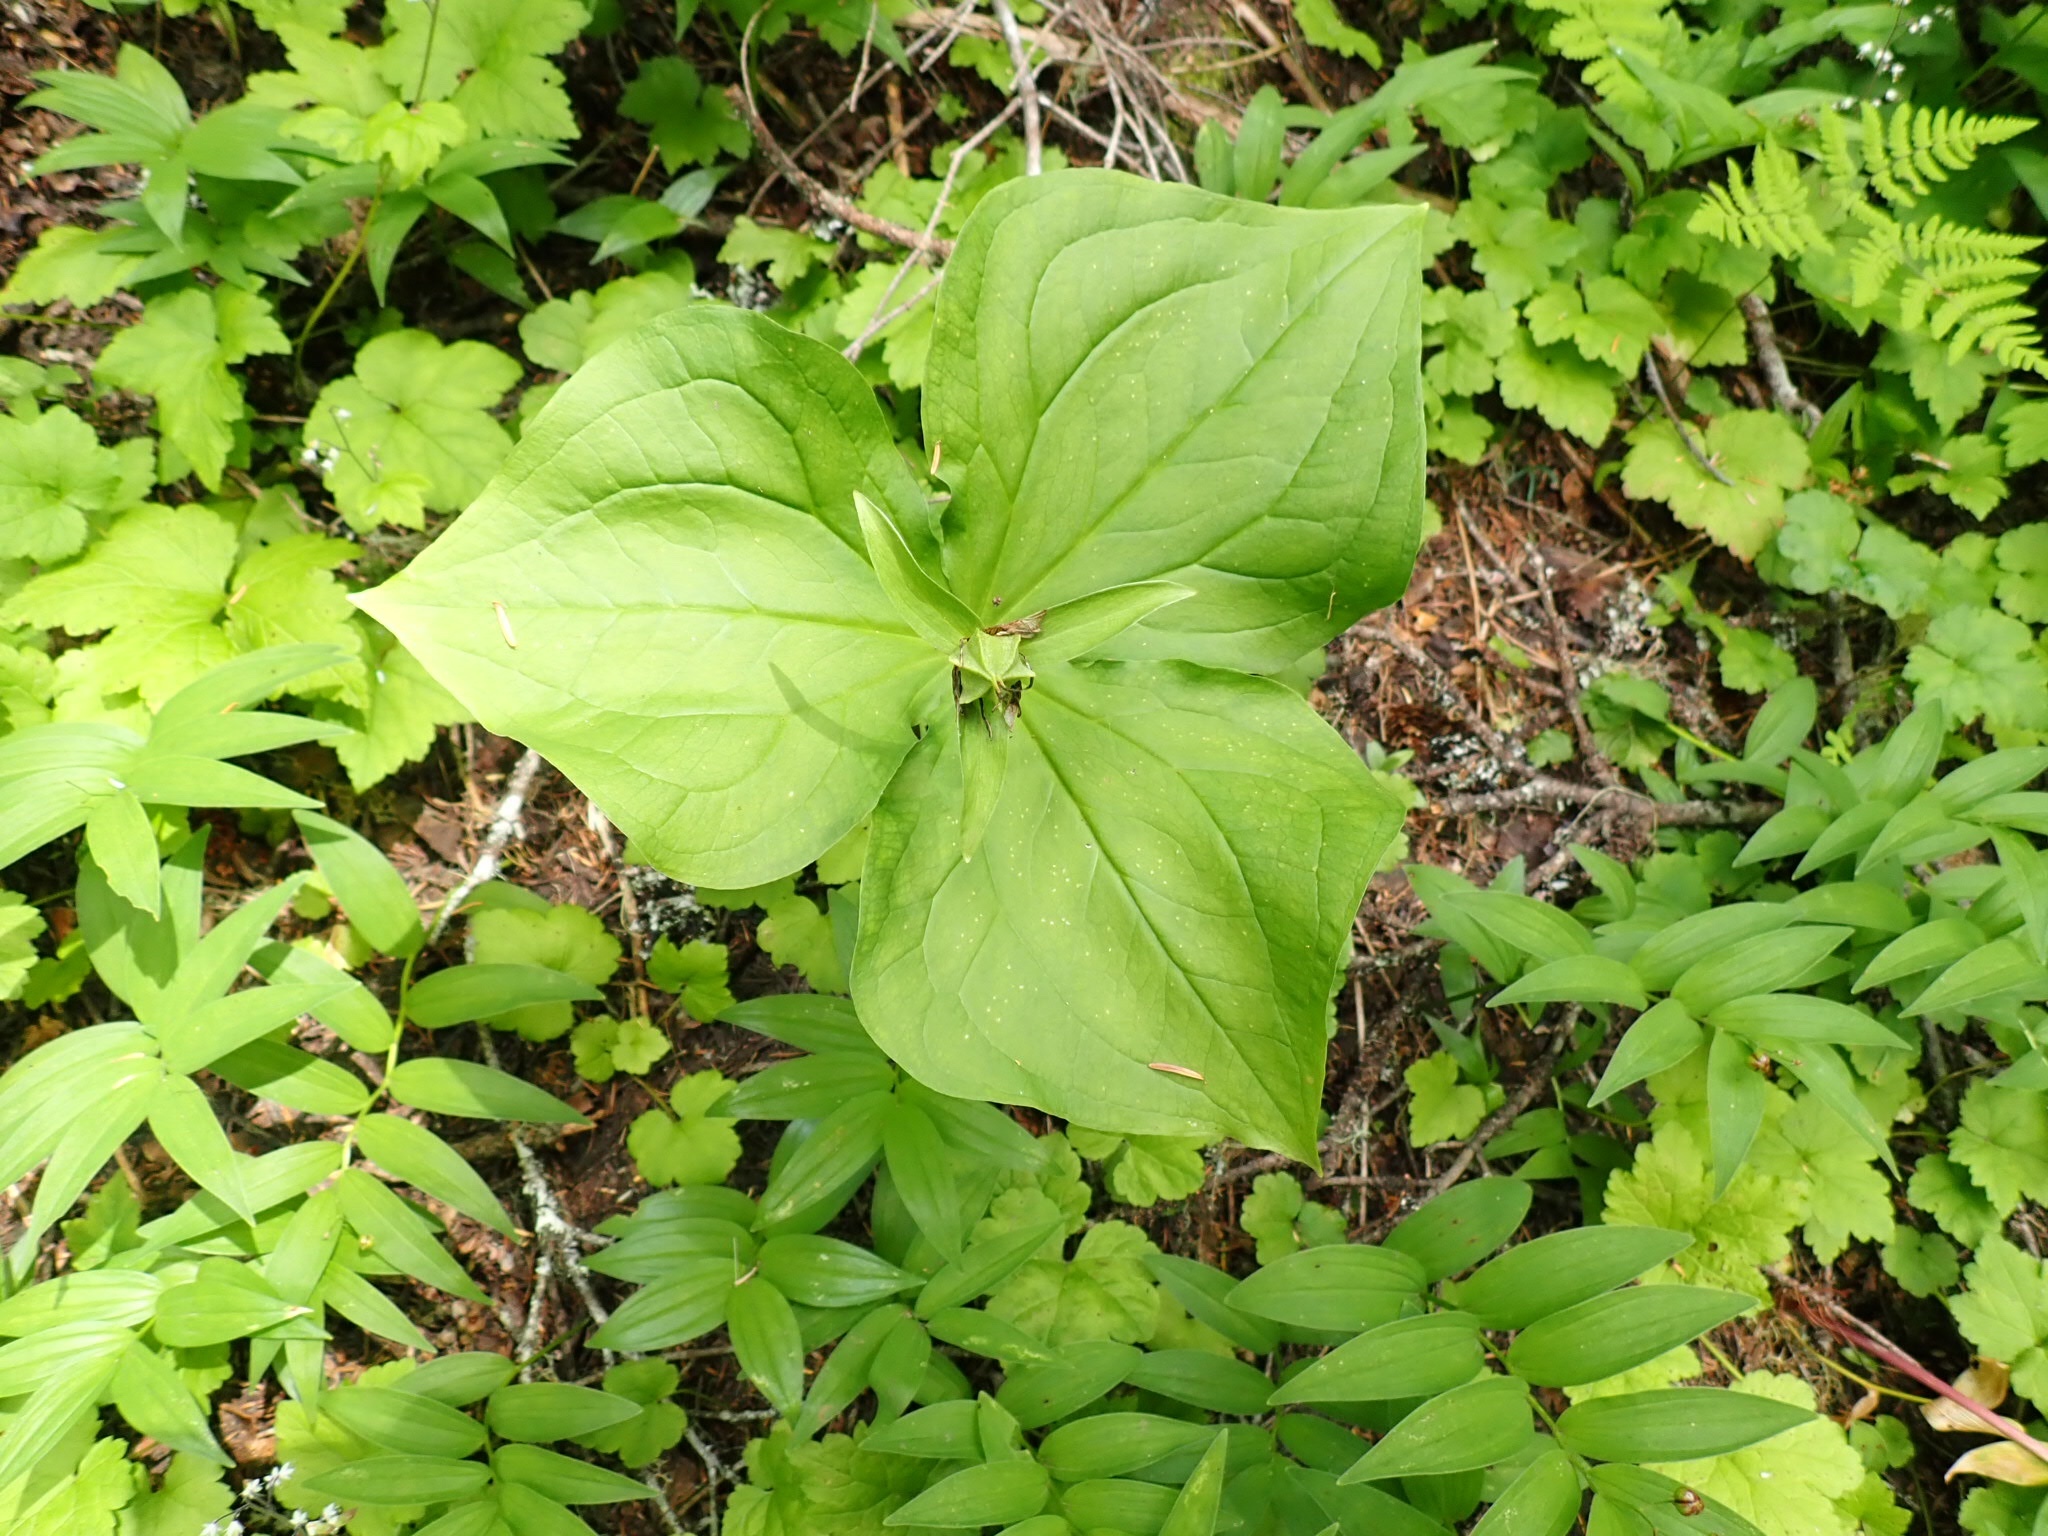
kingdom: Plantae
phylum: Tracheophyta
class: Liliopsida
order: Liliales
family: Melanthiaceae
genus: Trillium
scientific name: Trillium ovatum
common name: Pacific trillium
